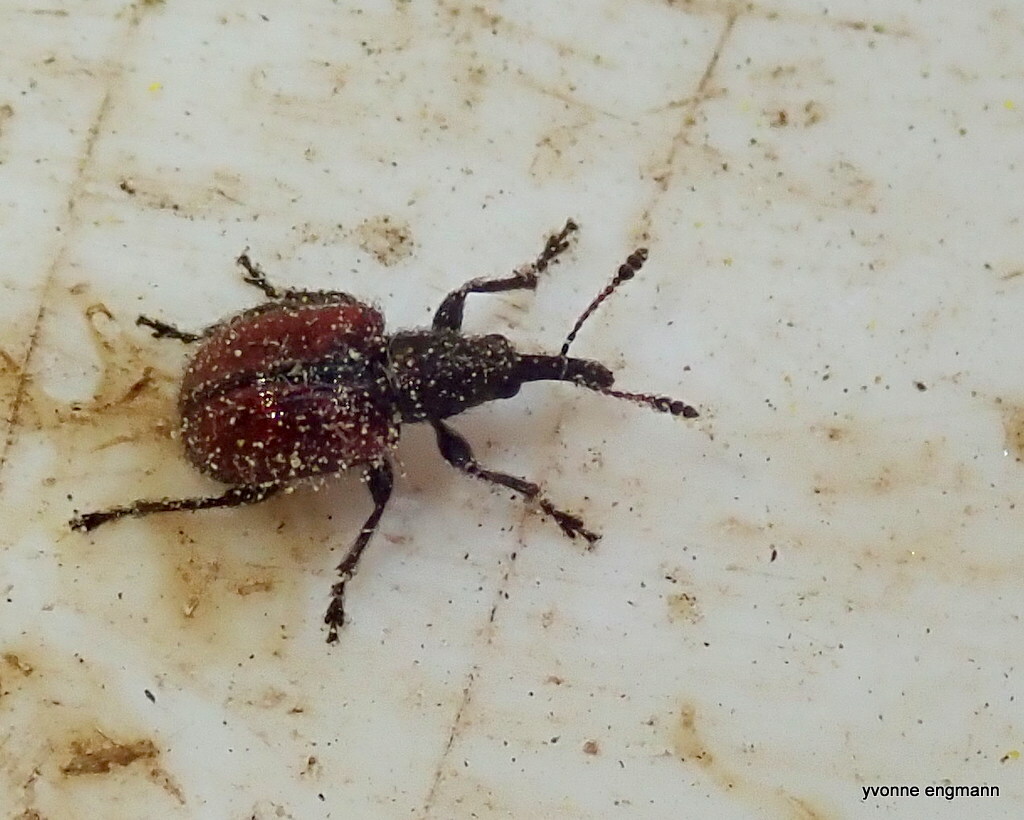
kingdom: Animalia
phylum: Arthropoda
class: Insecta
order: Coleoptera
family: Rhynchitidae
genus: Tatianaerhynchites
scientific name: Tatianaerhynchites aequatus
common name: Apple fruit rhynchites
